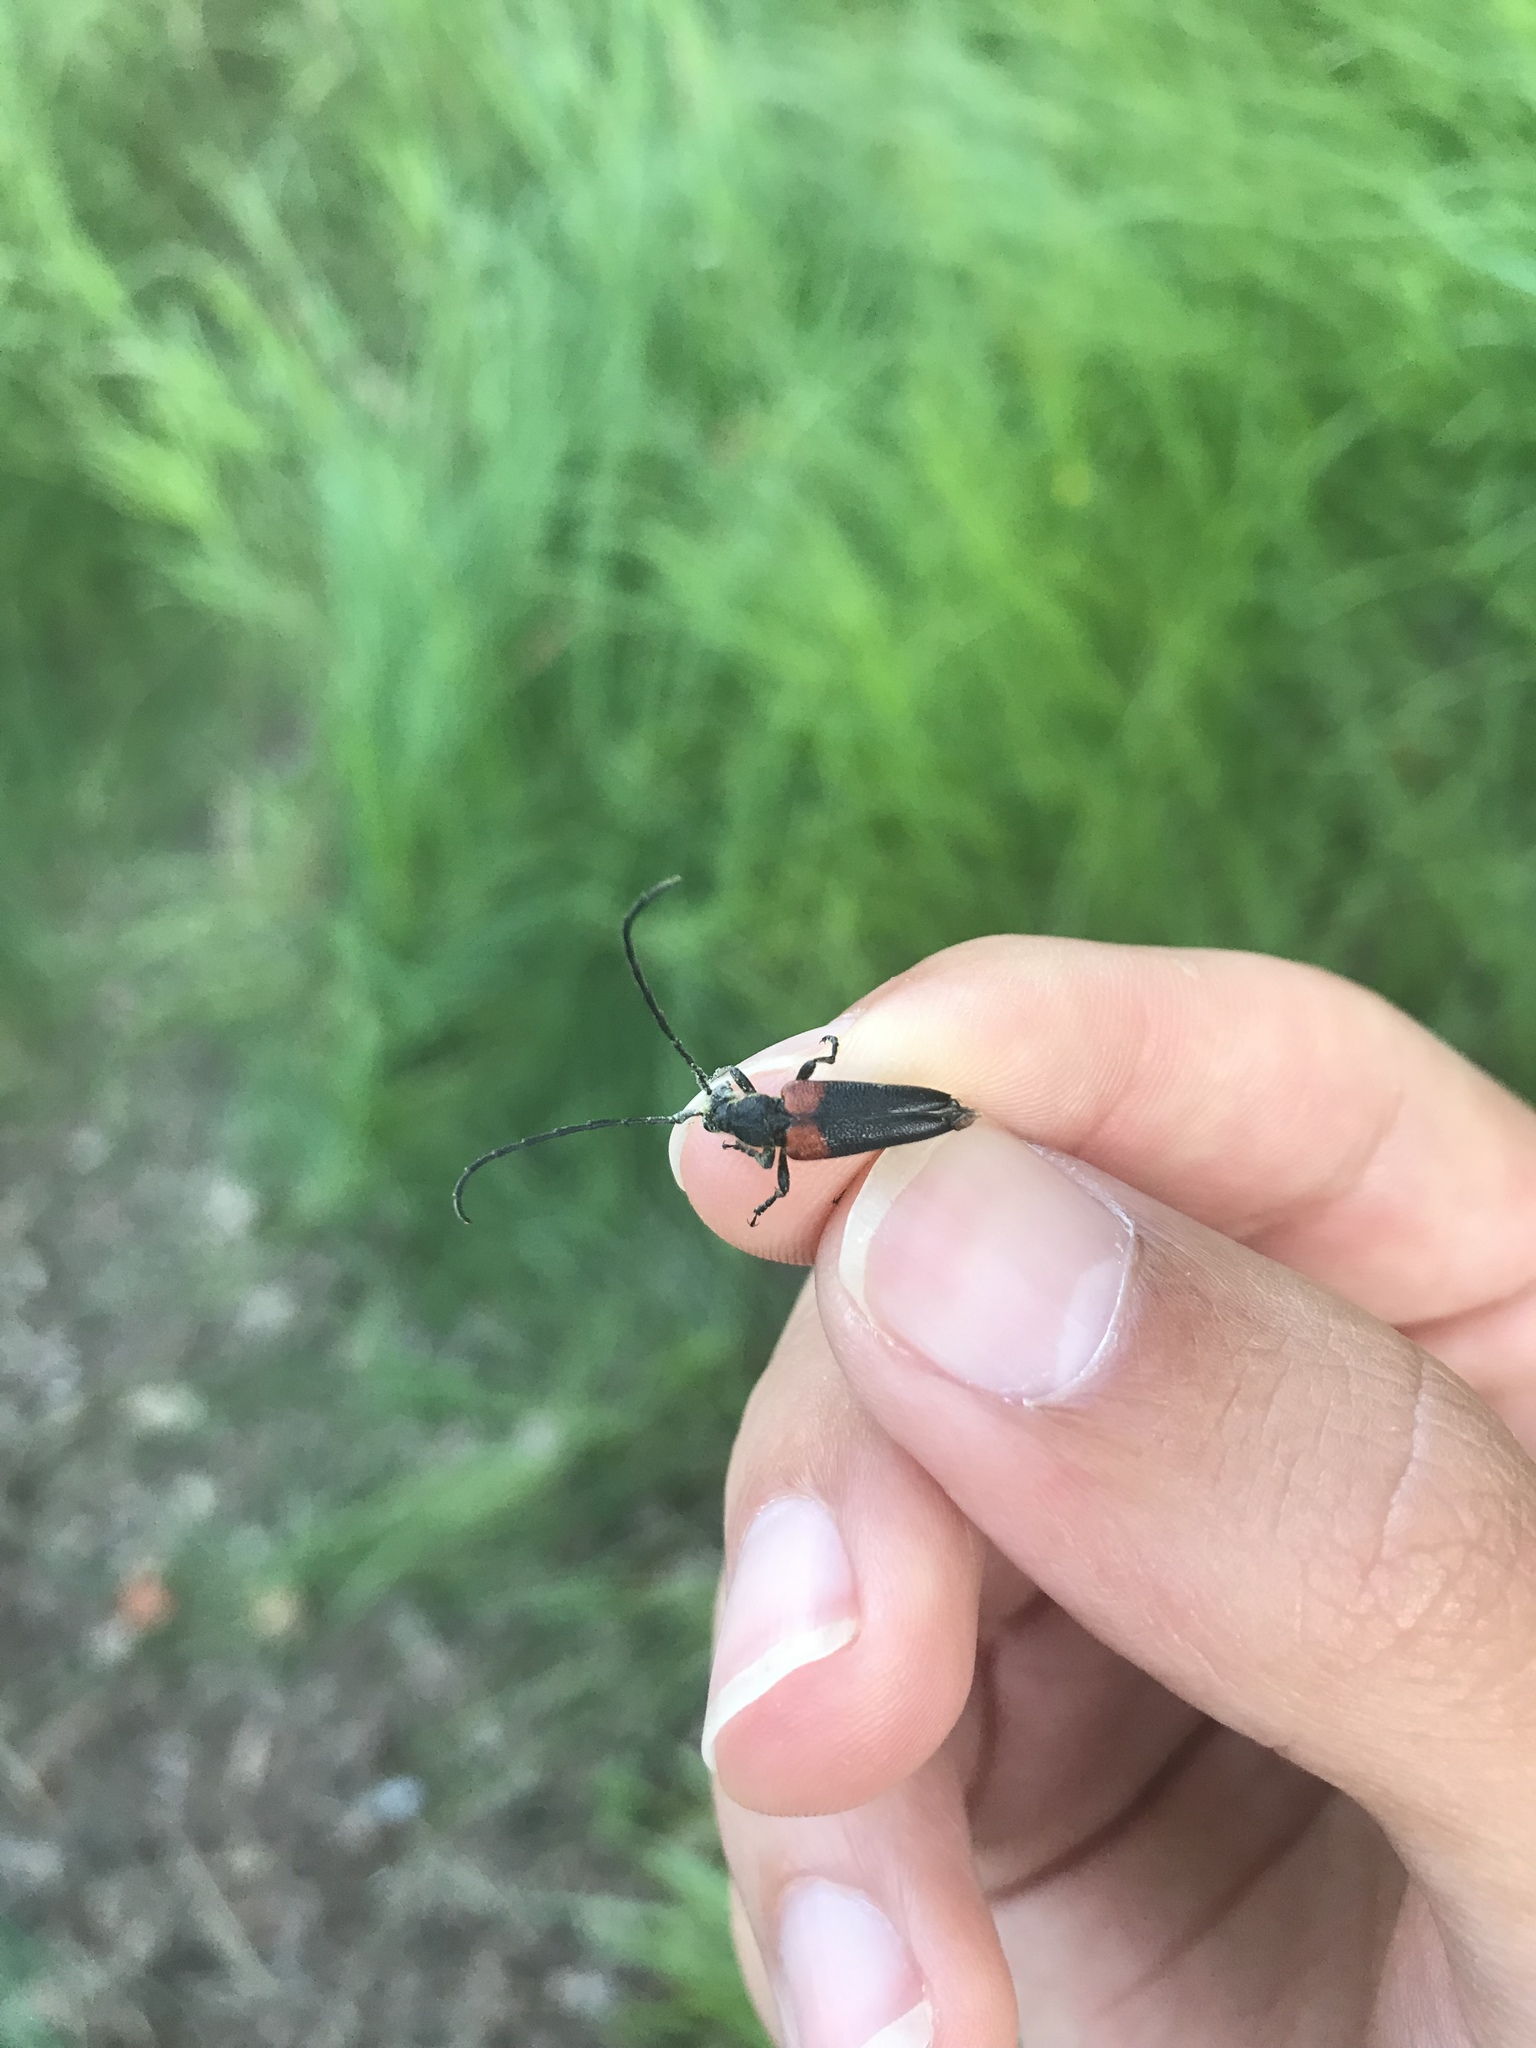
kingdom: Animalia
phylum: Arthropoda
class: Insecta
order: Coleoptera
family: Cerambycidae
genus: Stictoleptura
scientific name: Stictoleptura canadensis
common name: Red-shouldered pine borer
